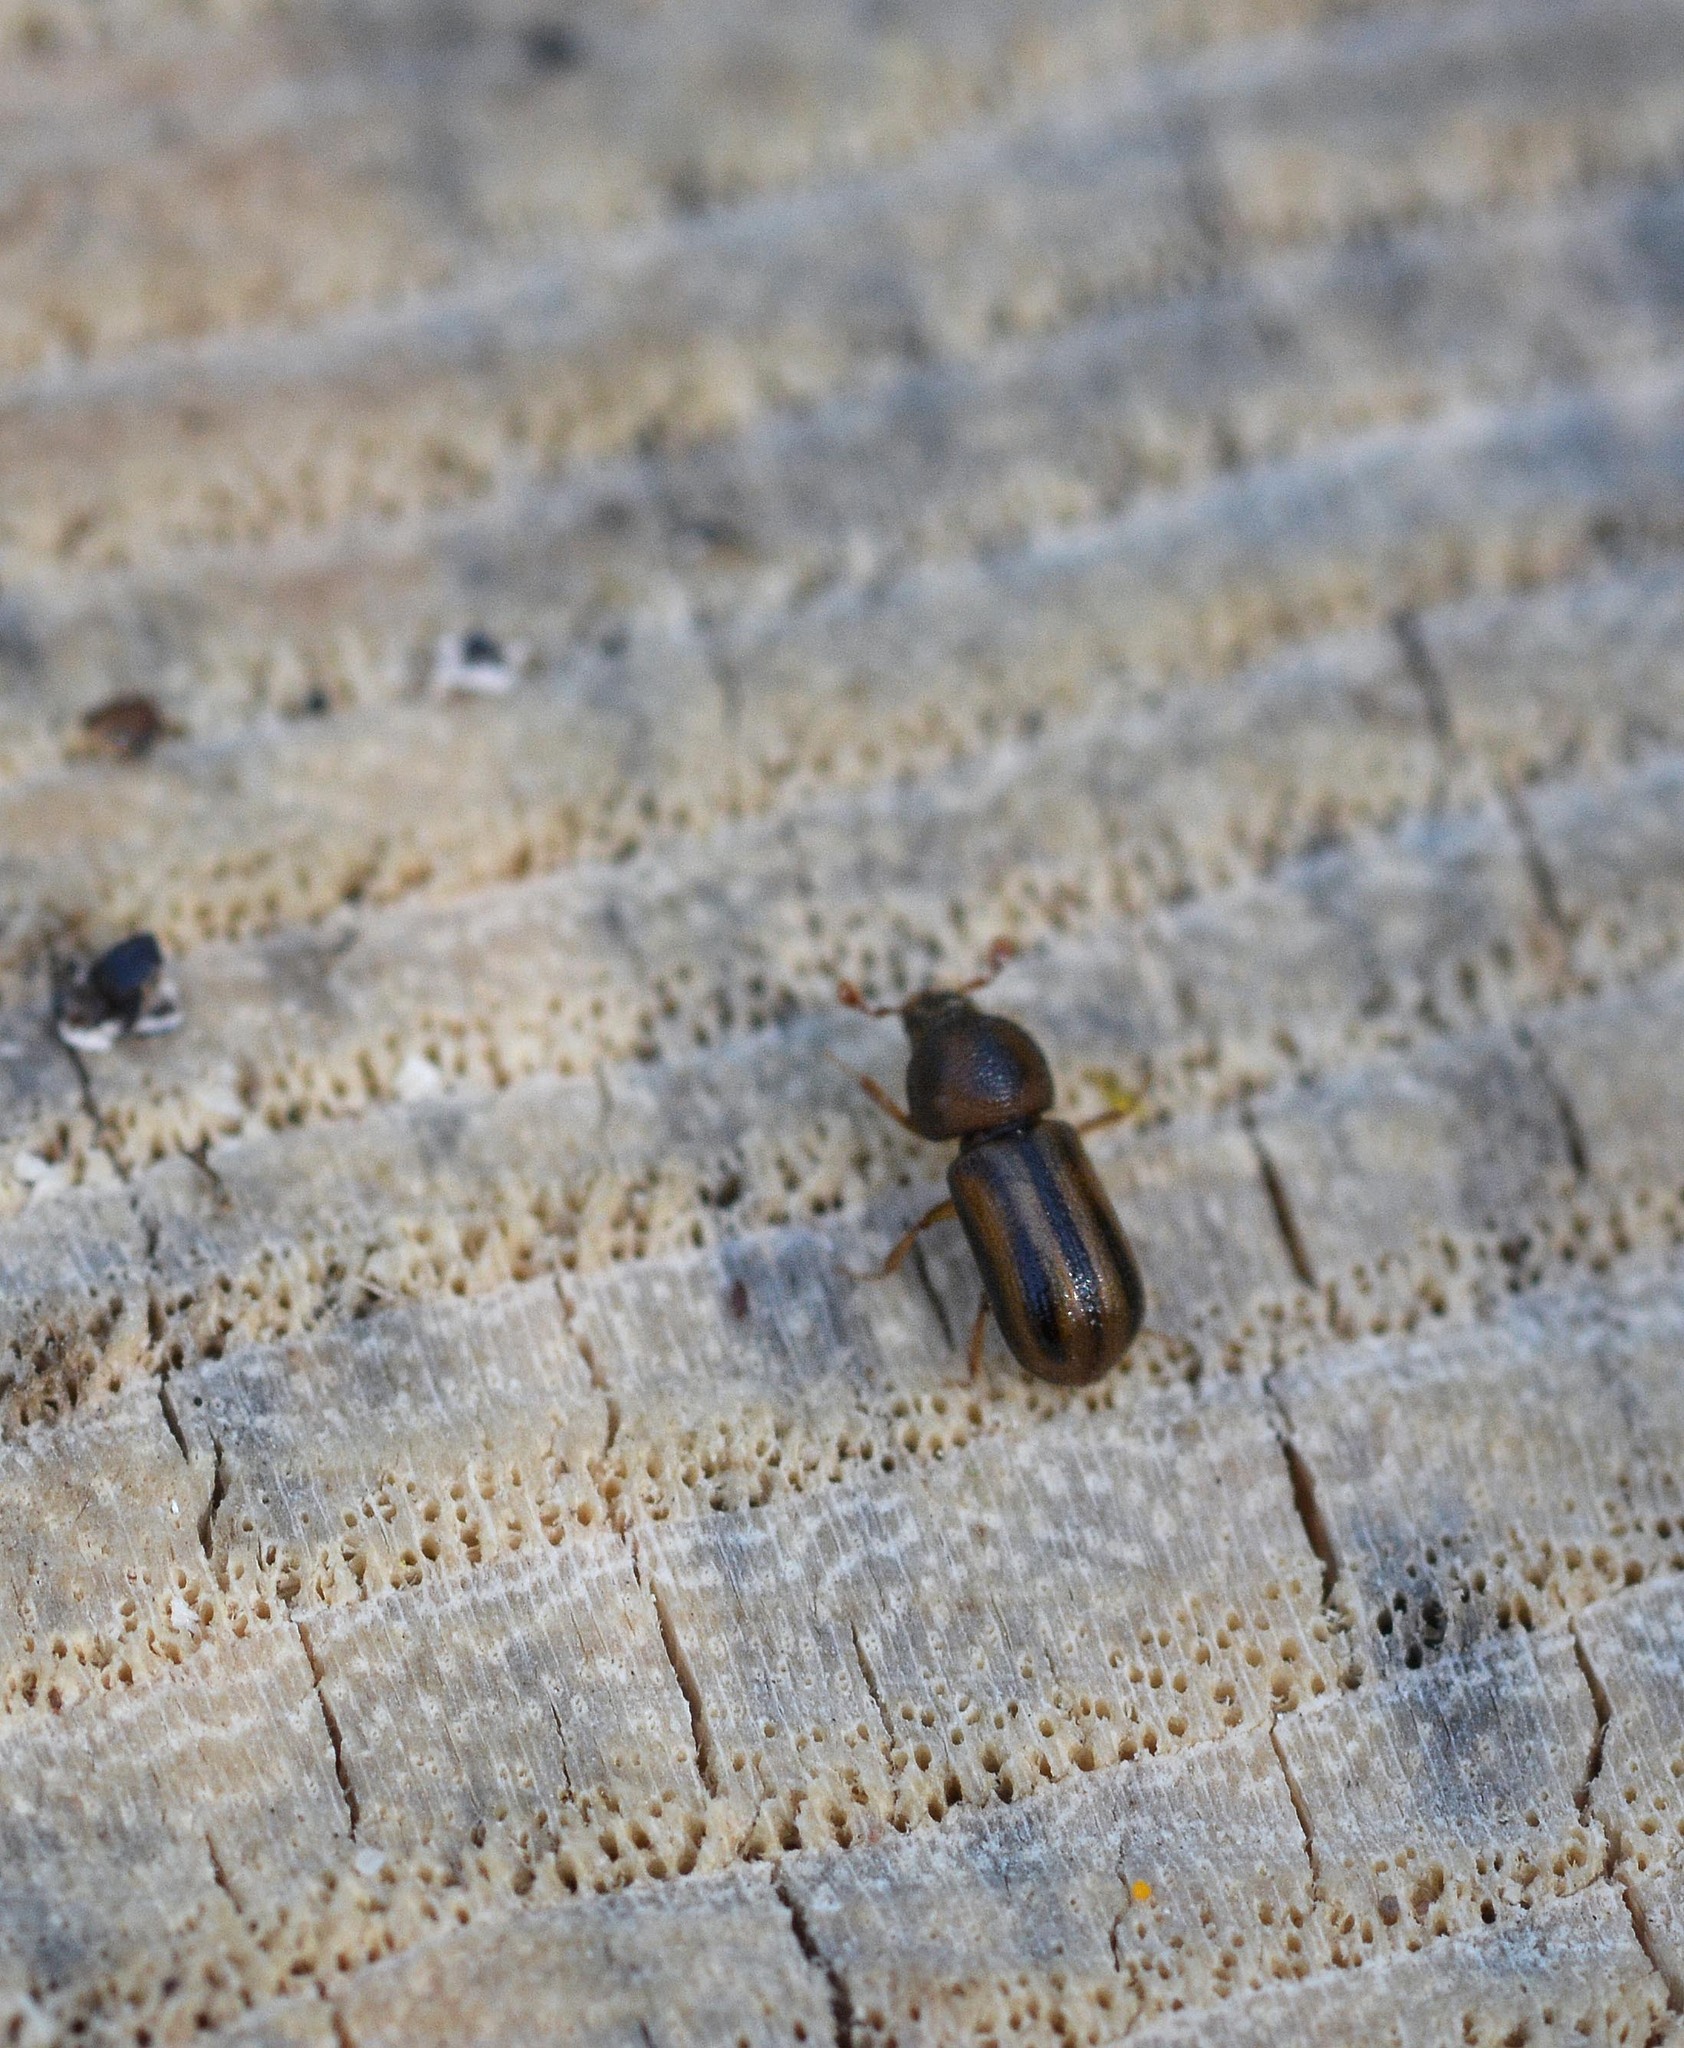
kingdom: Animalia
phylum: Arthropoda
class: Insecta
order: Coleoptera
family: Curculionidae
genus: Trypodendron
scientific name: Trypodendron lineatum
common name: Lineate bark beetle
